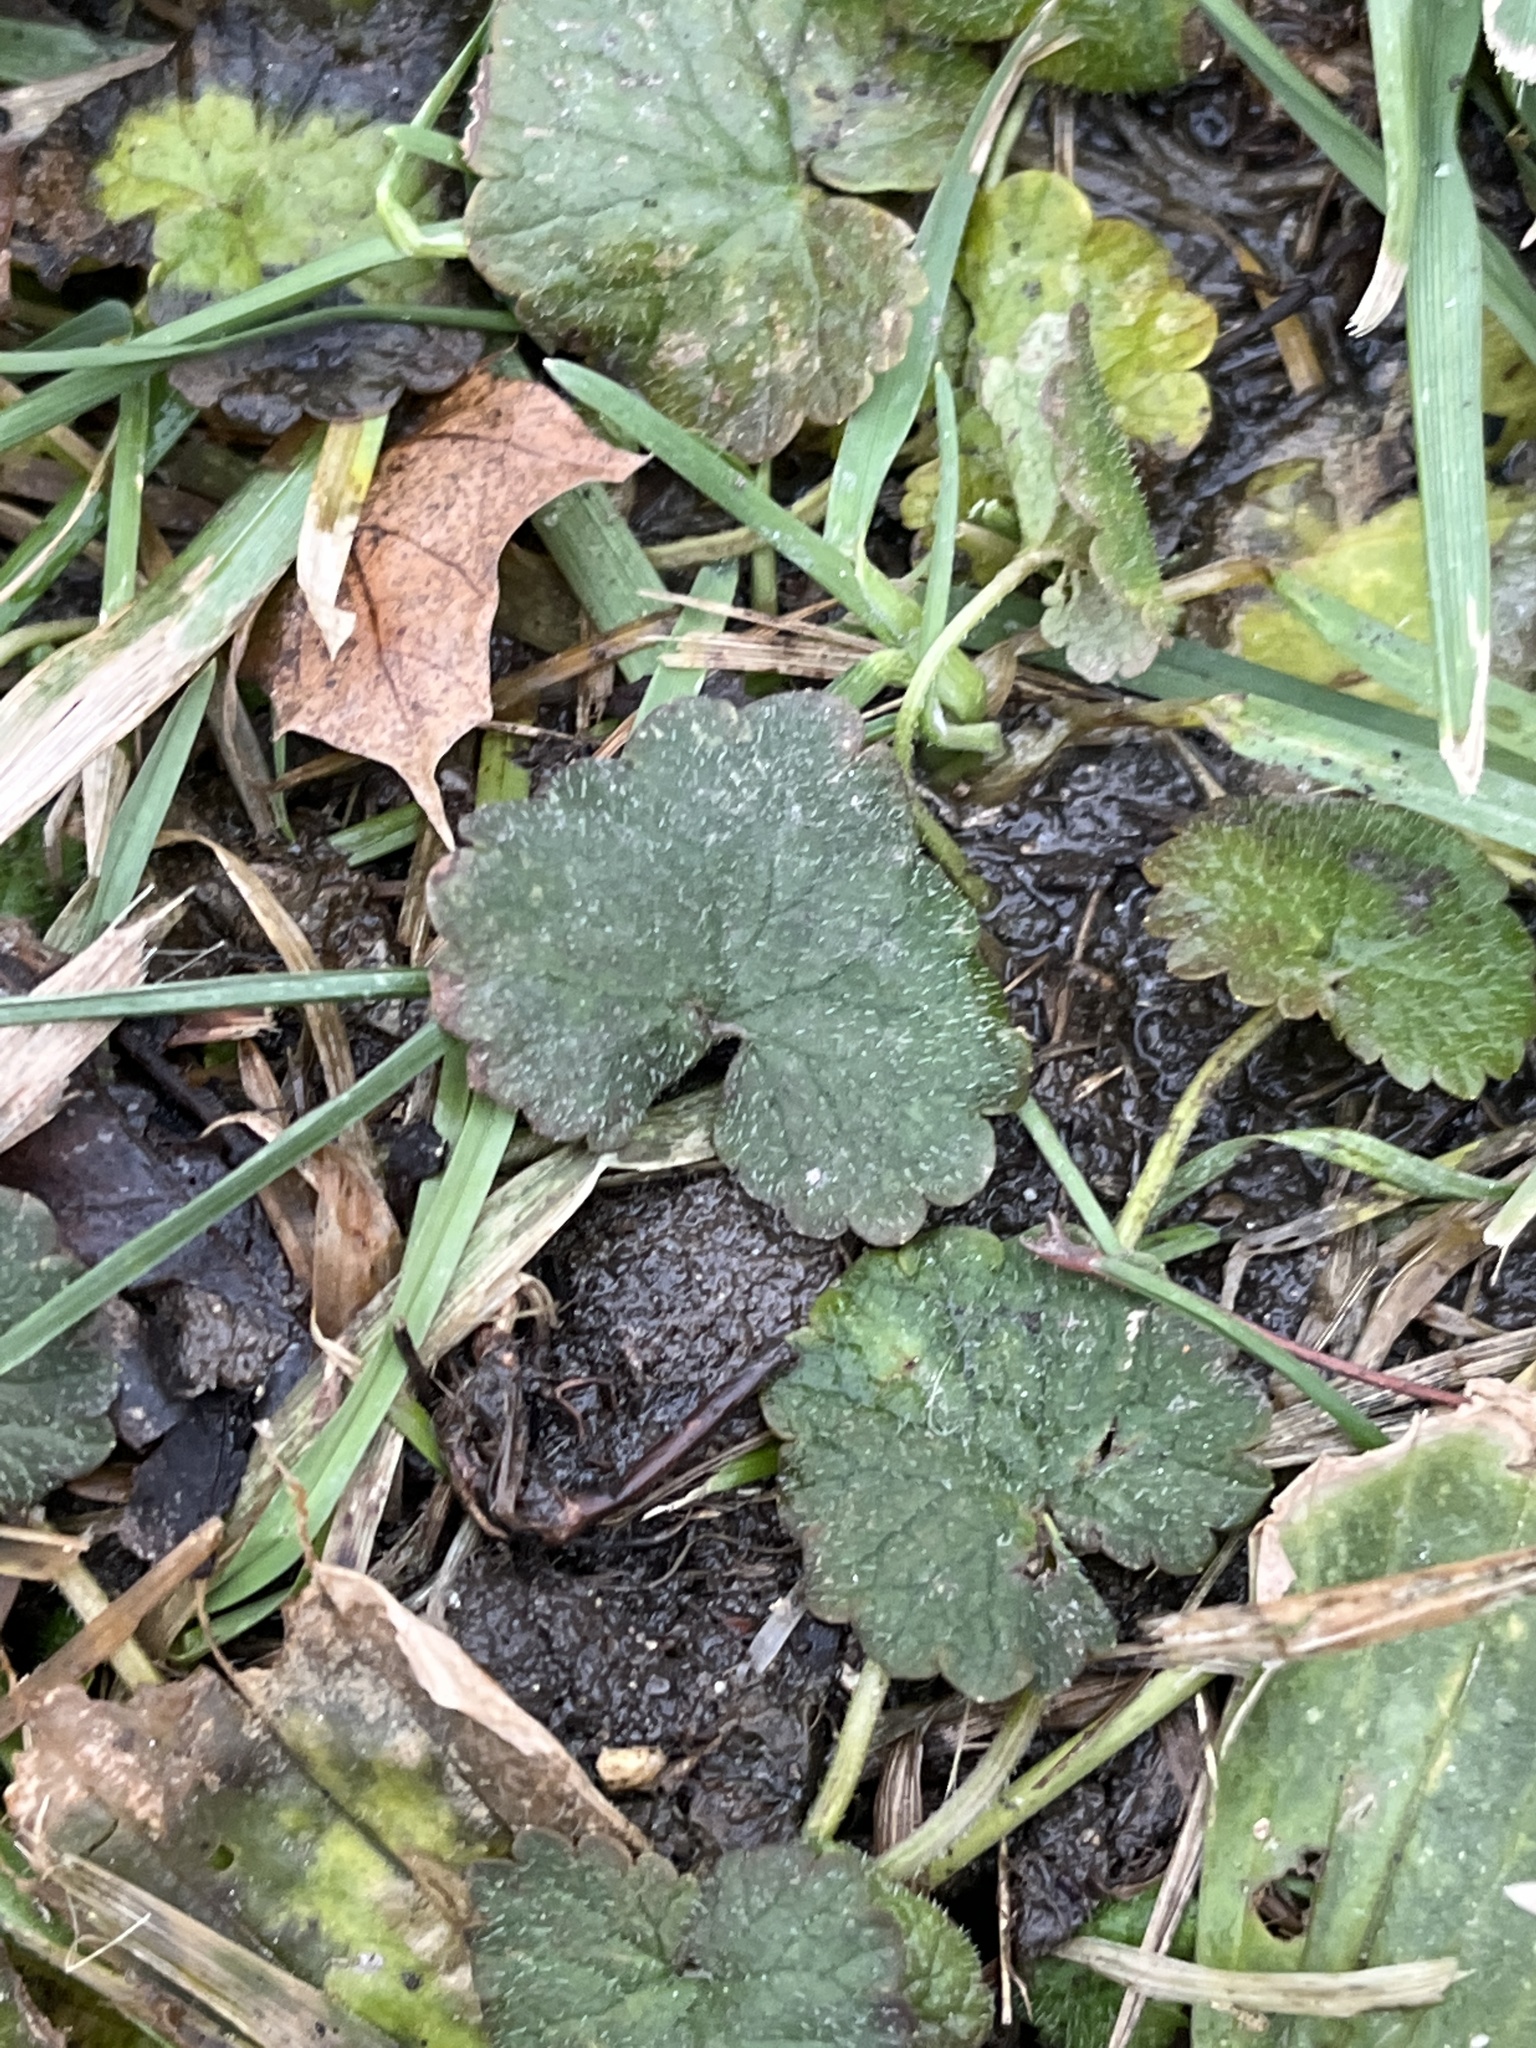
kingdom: Plantae
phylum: Tracheophyta
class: Magnoliopsida
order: Lamiales
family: Lamiaceae
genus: Glechoma
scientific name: Glechoma hederacea
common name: Ground ivy
